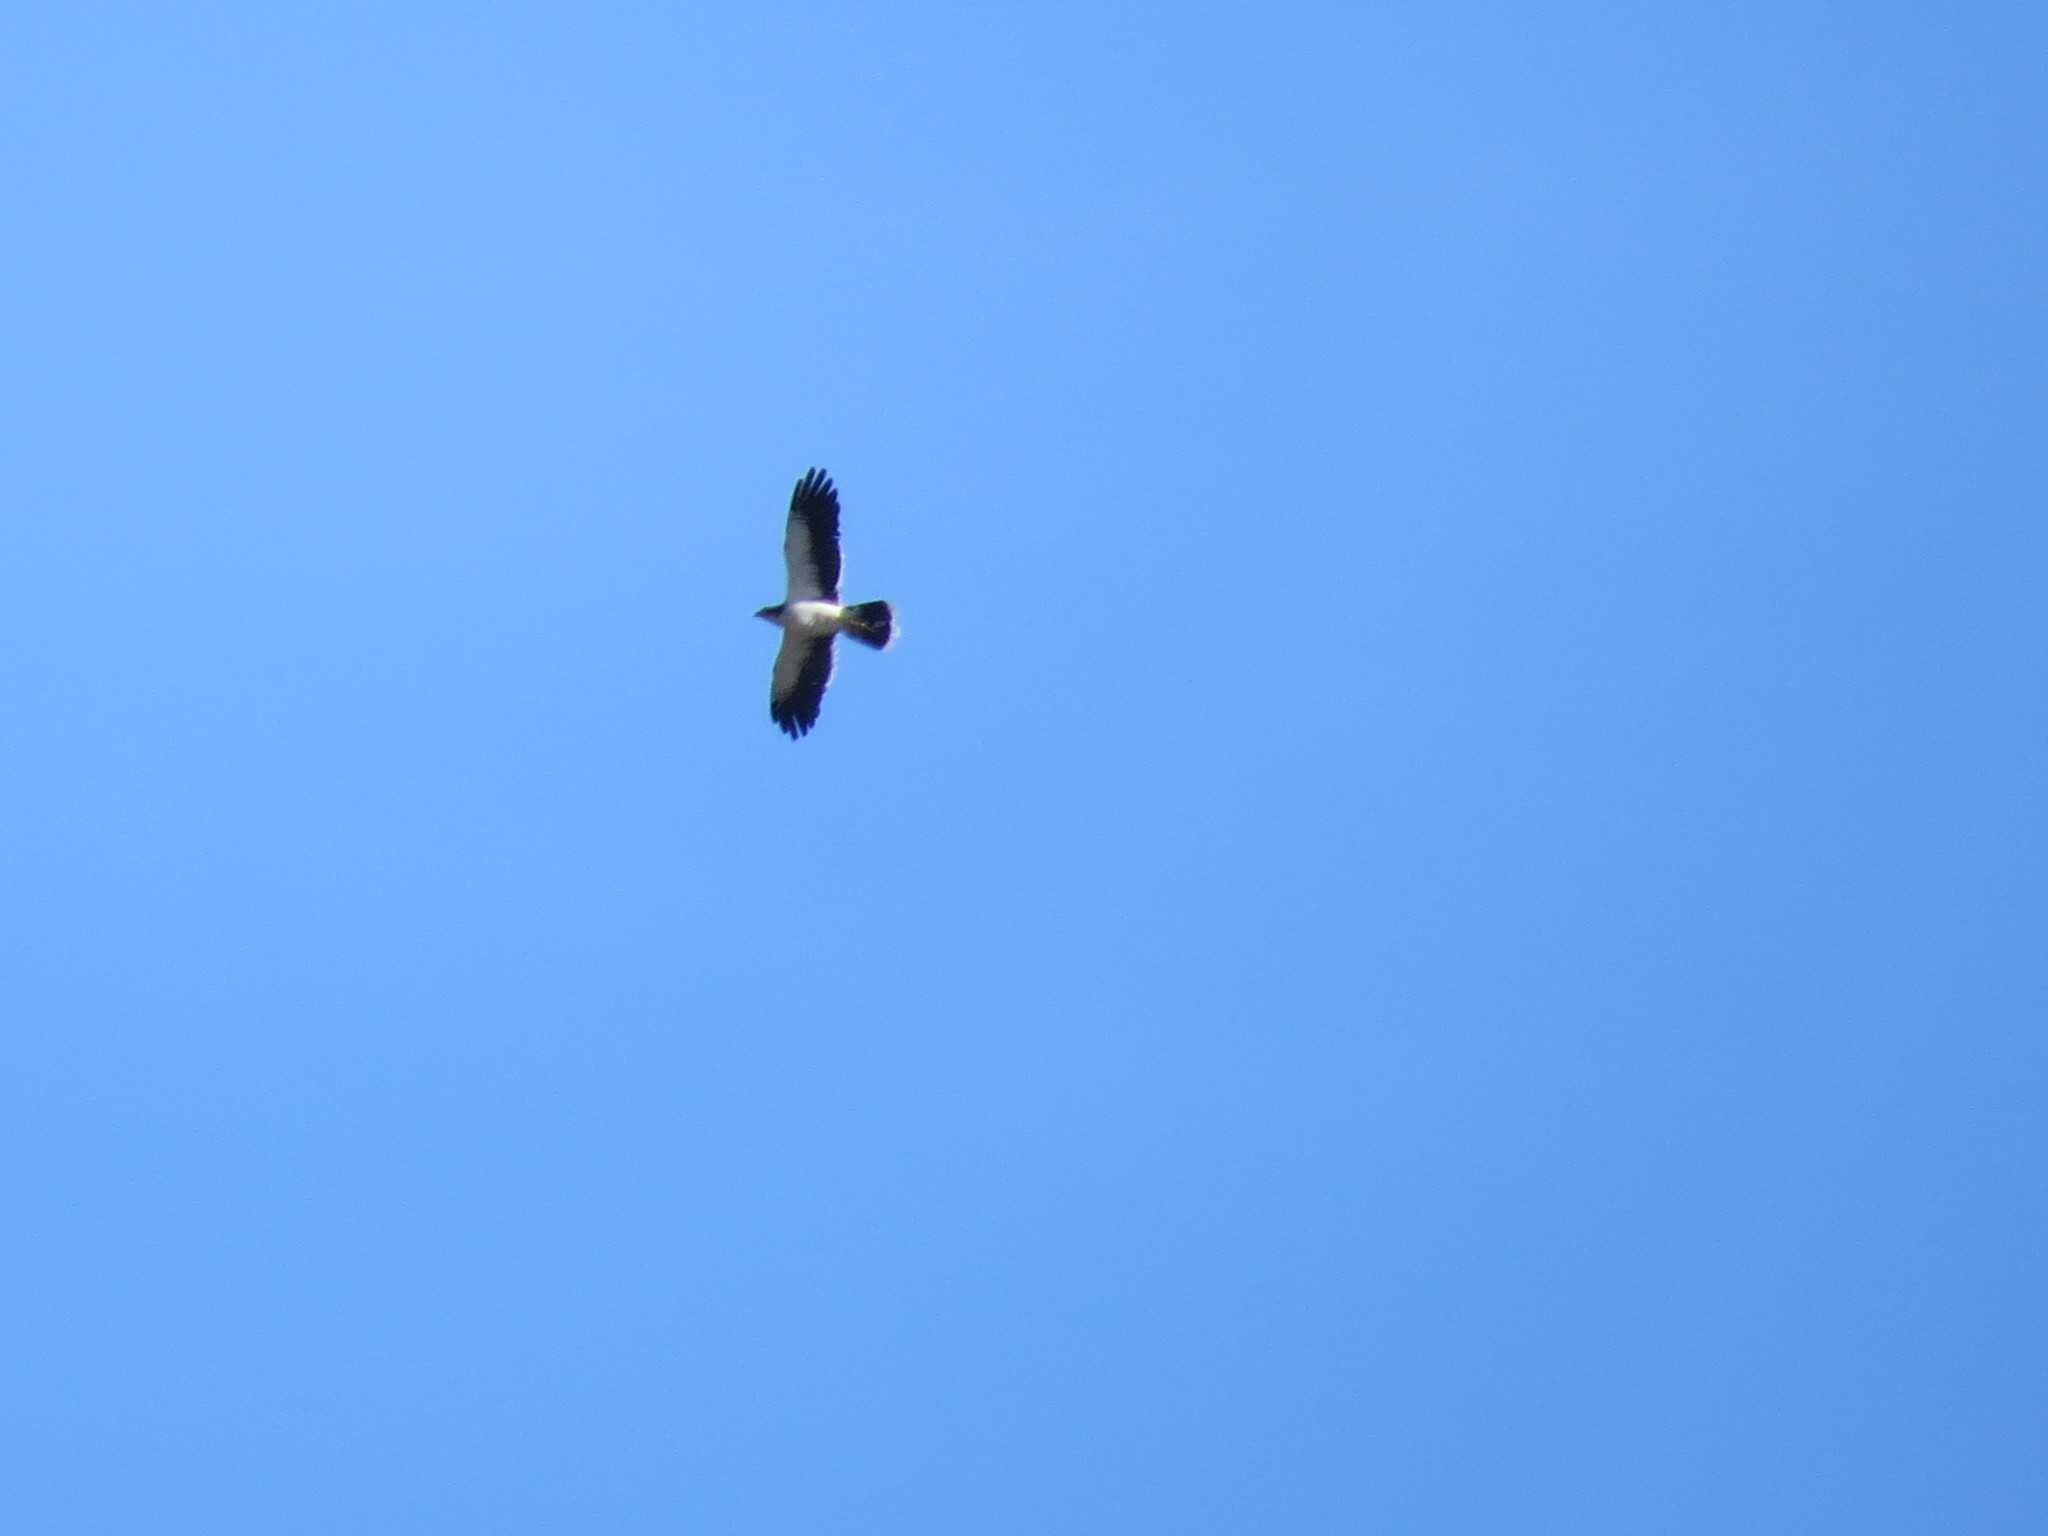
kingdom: Animalia
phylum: Chordata
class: Aves
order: Falconiformes
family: Falconidae
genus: Daptrius
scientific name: Daptrius
